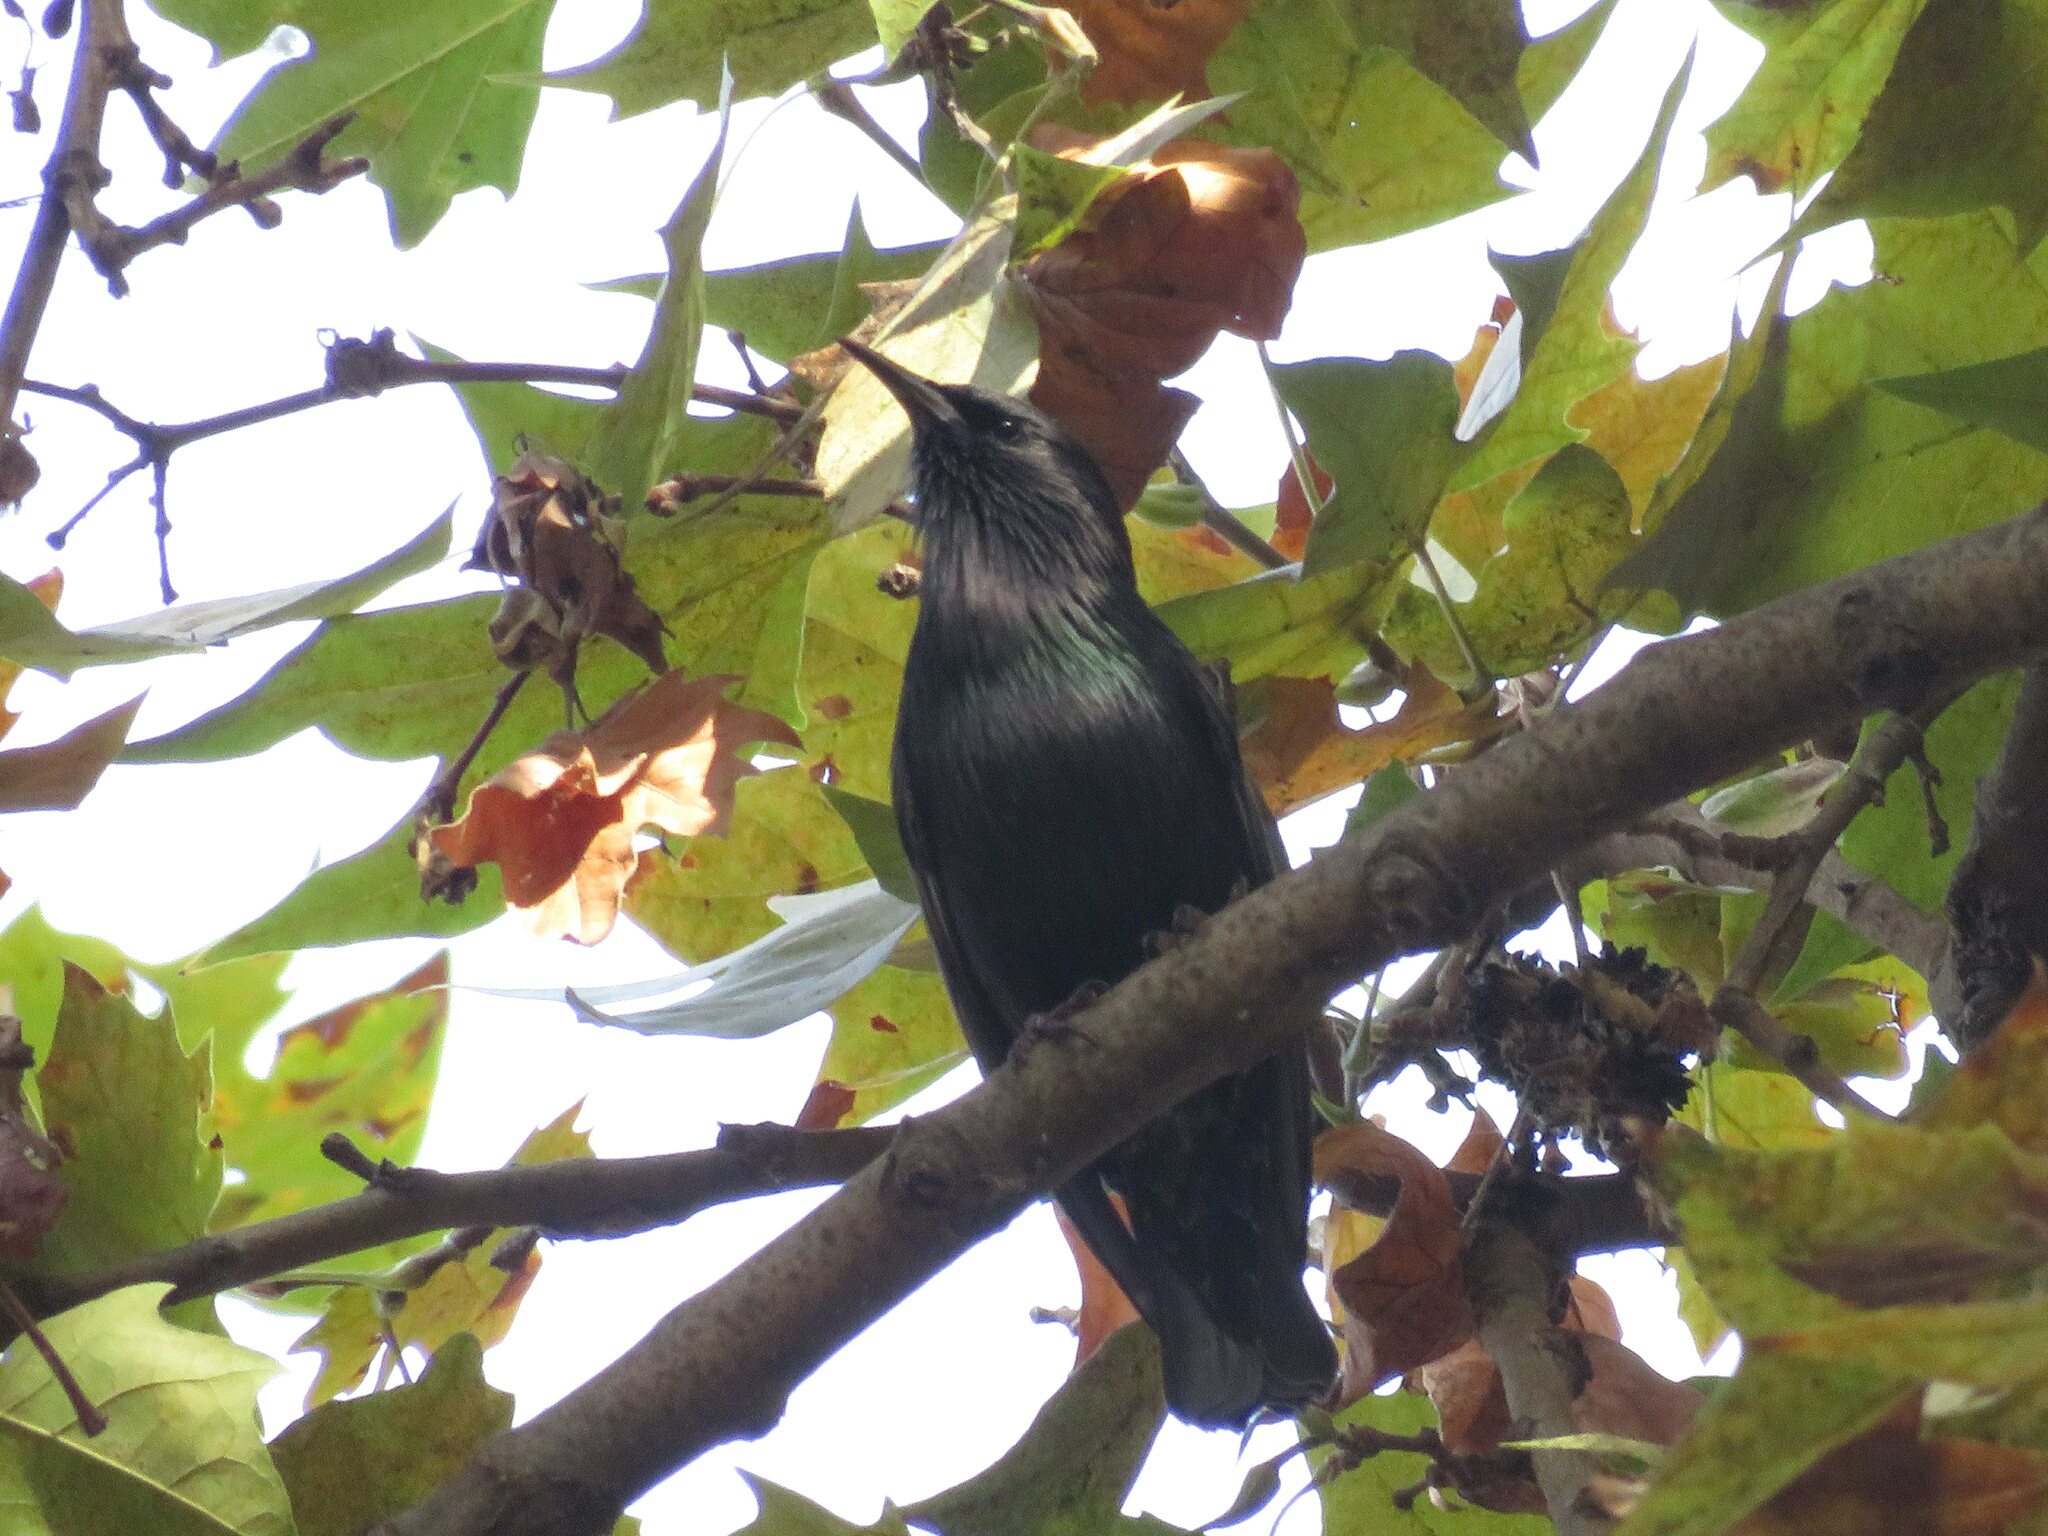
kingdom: Animalia
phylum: Chordata
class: Aves
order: Passeriformes
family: Sturnidae
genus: Sturnus
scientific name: Sturnus unicolor
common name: Spotless starling
